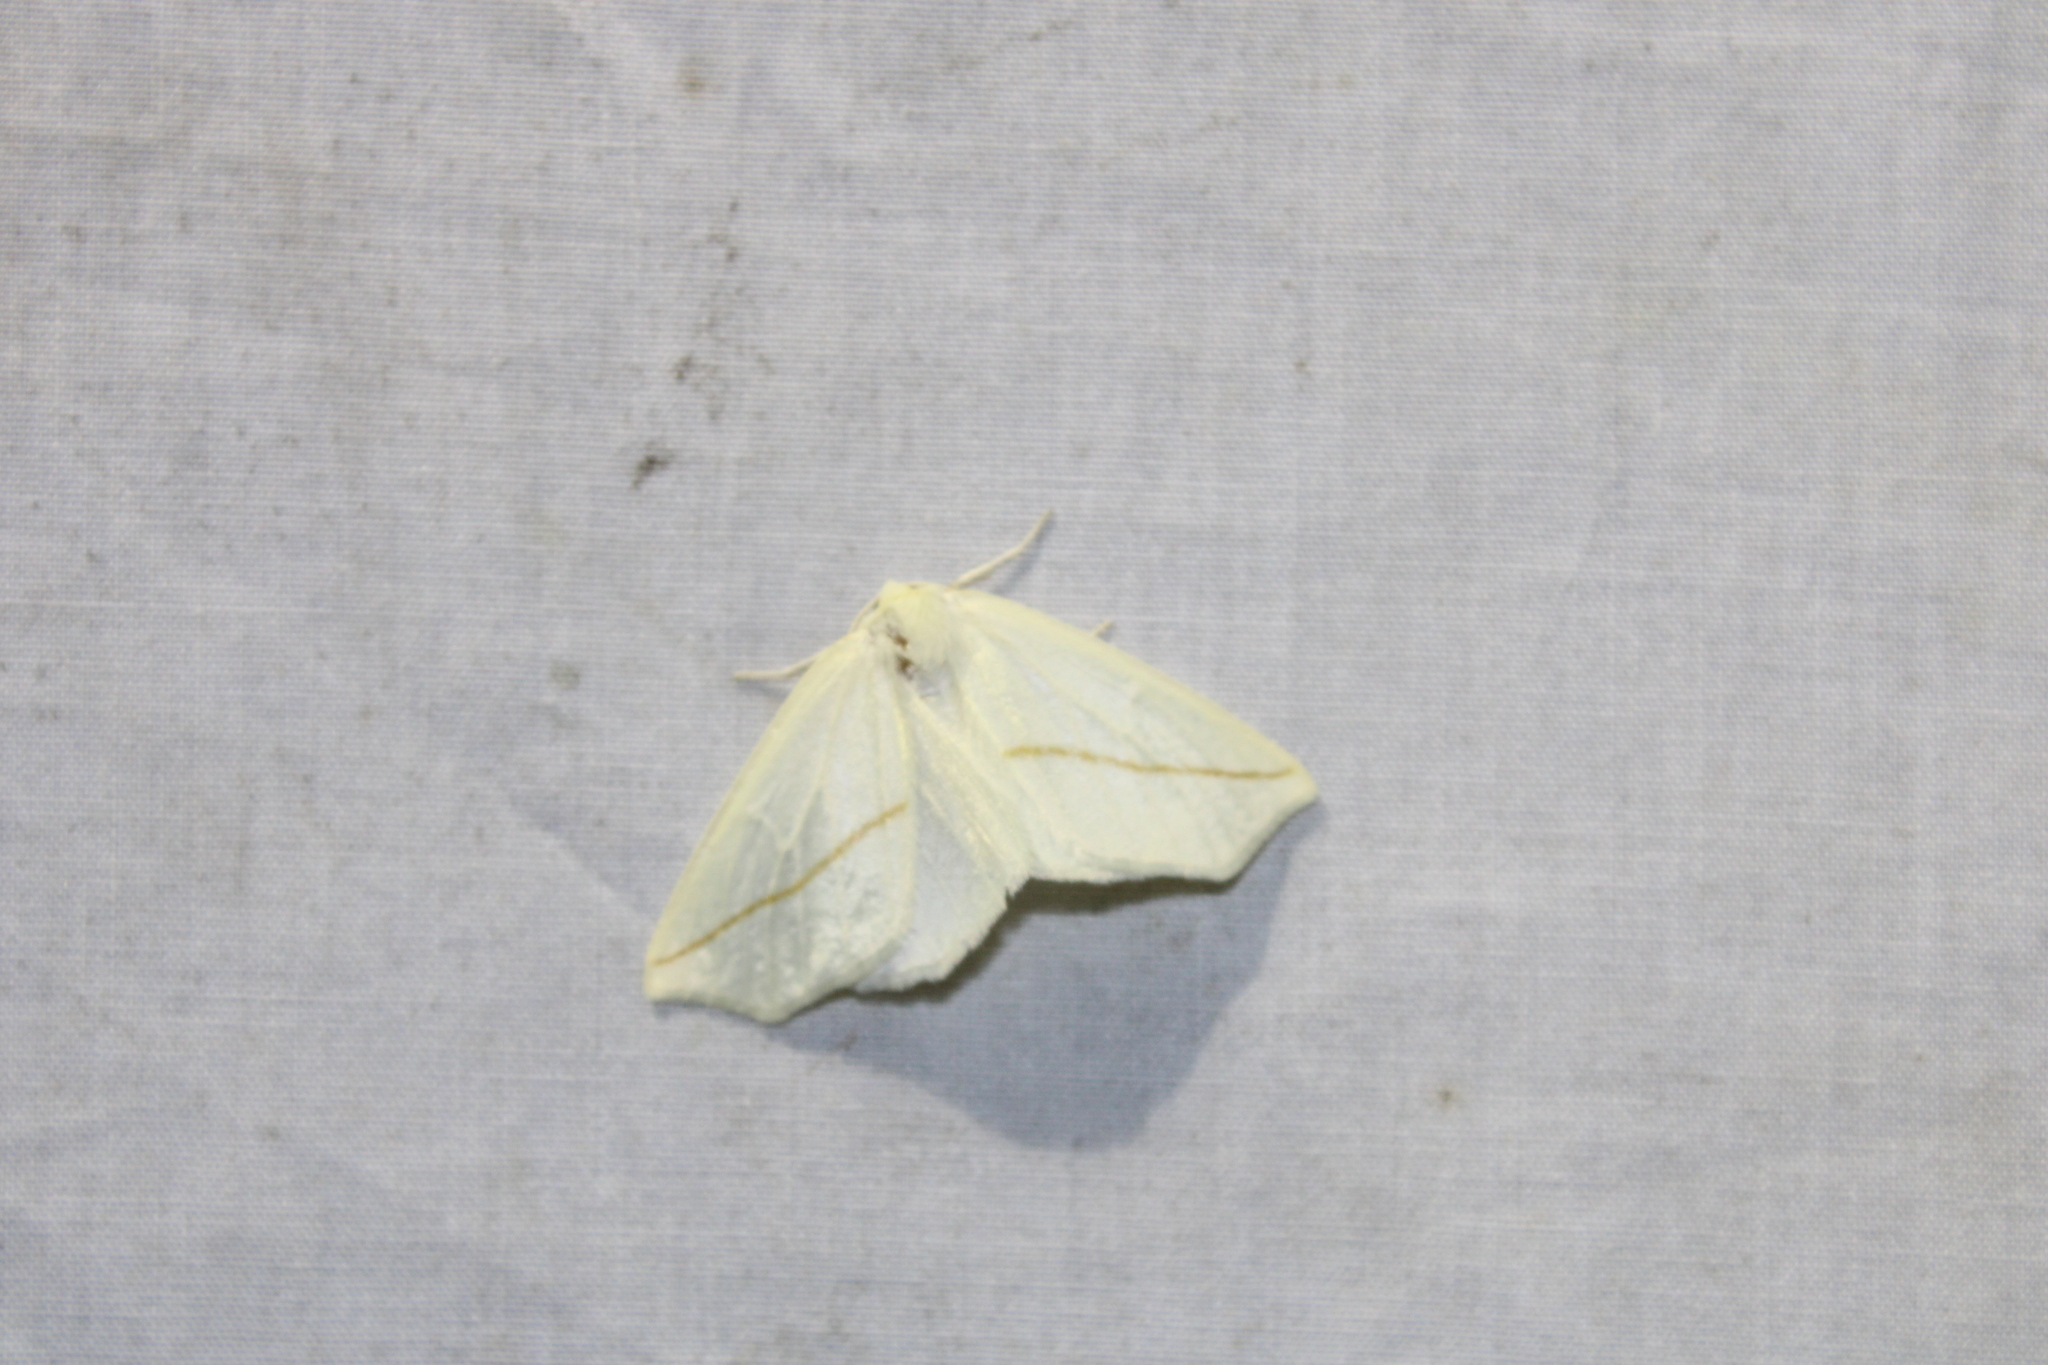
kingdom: Animalia
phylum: Arthropoda
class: Insecta
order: Lepidoptera
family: Geometridae
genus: Tetracis
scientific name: Tetracis cachexiata
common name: White slant-line
